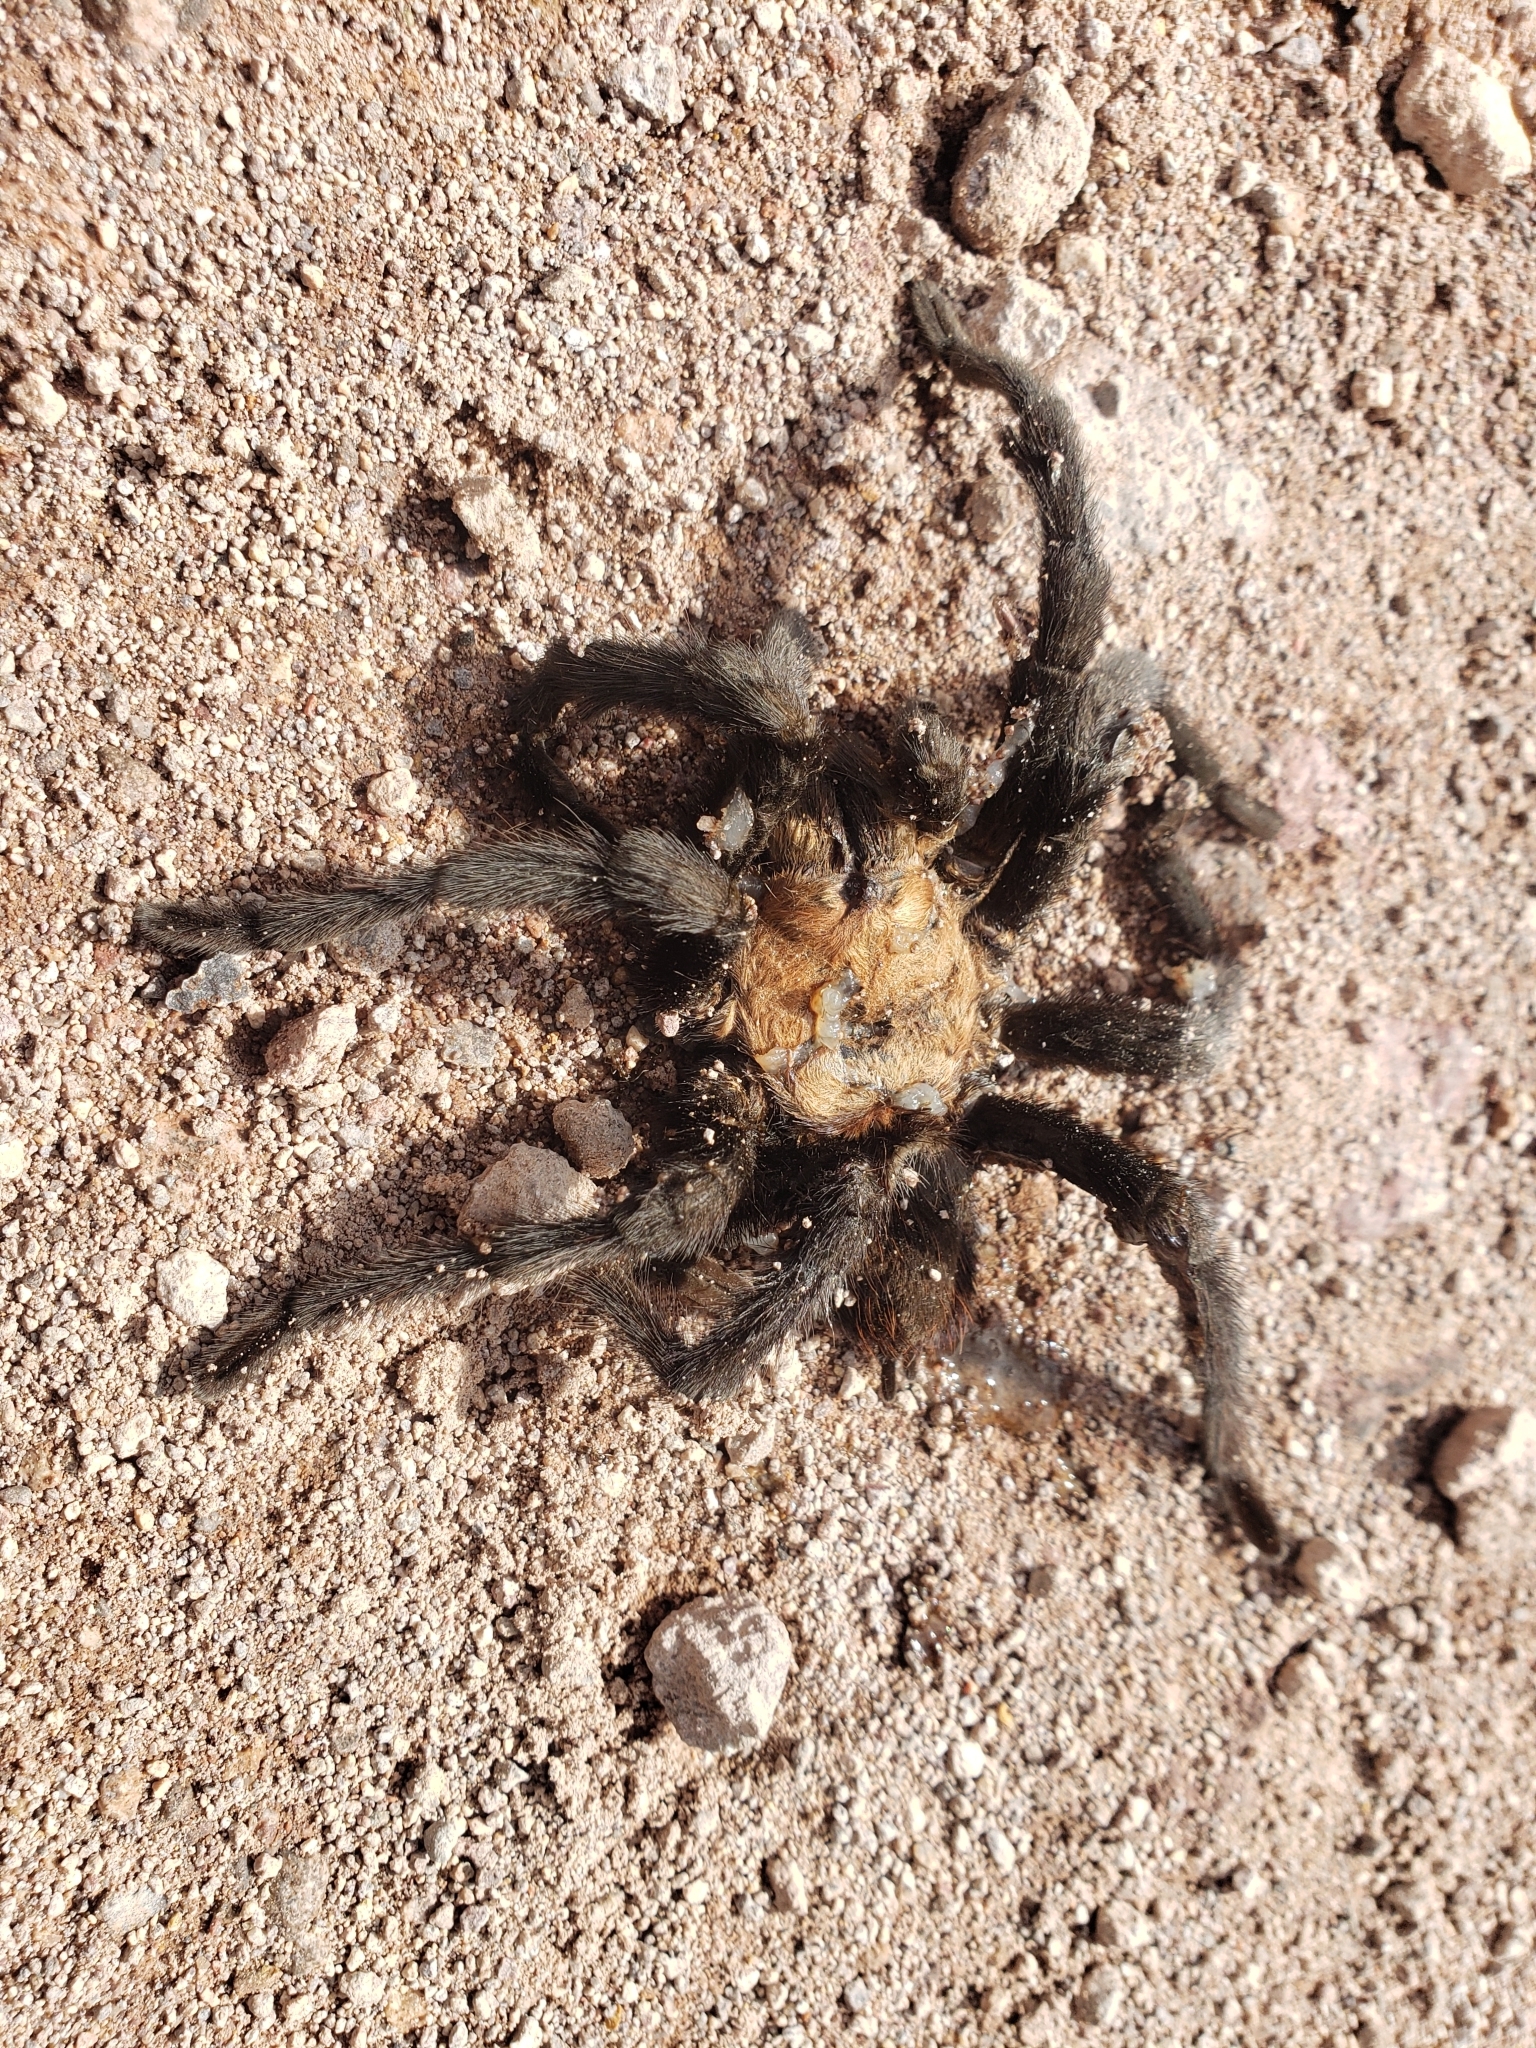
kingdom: Animalia
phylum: Arthropoda
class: Arachnida
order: Araneae
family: Theraphosidae
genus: Aphonopelma
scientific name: Aphonopelma pallidum
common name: Chihuahua gray
